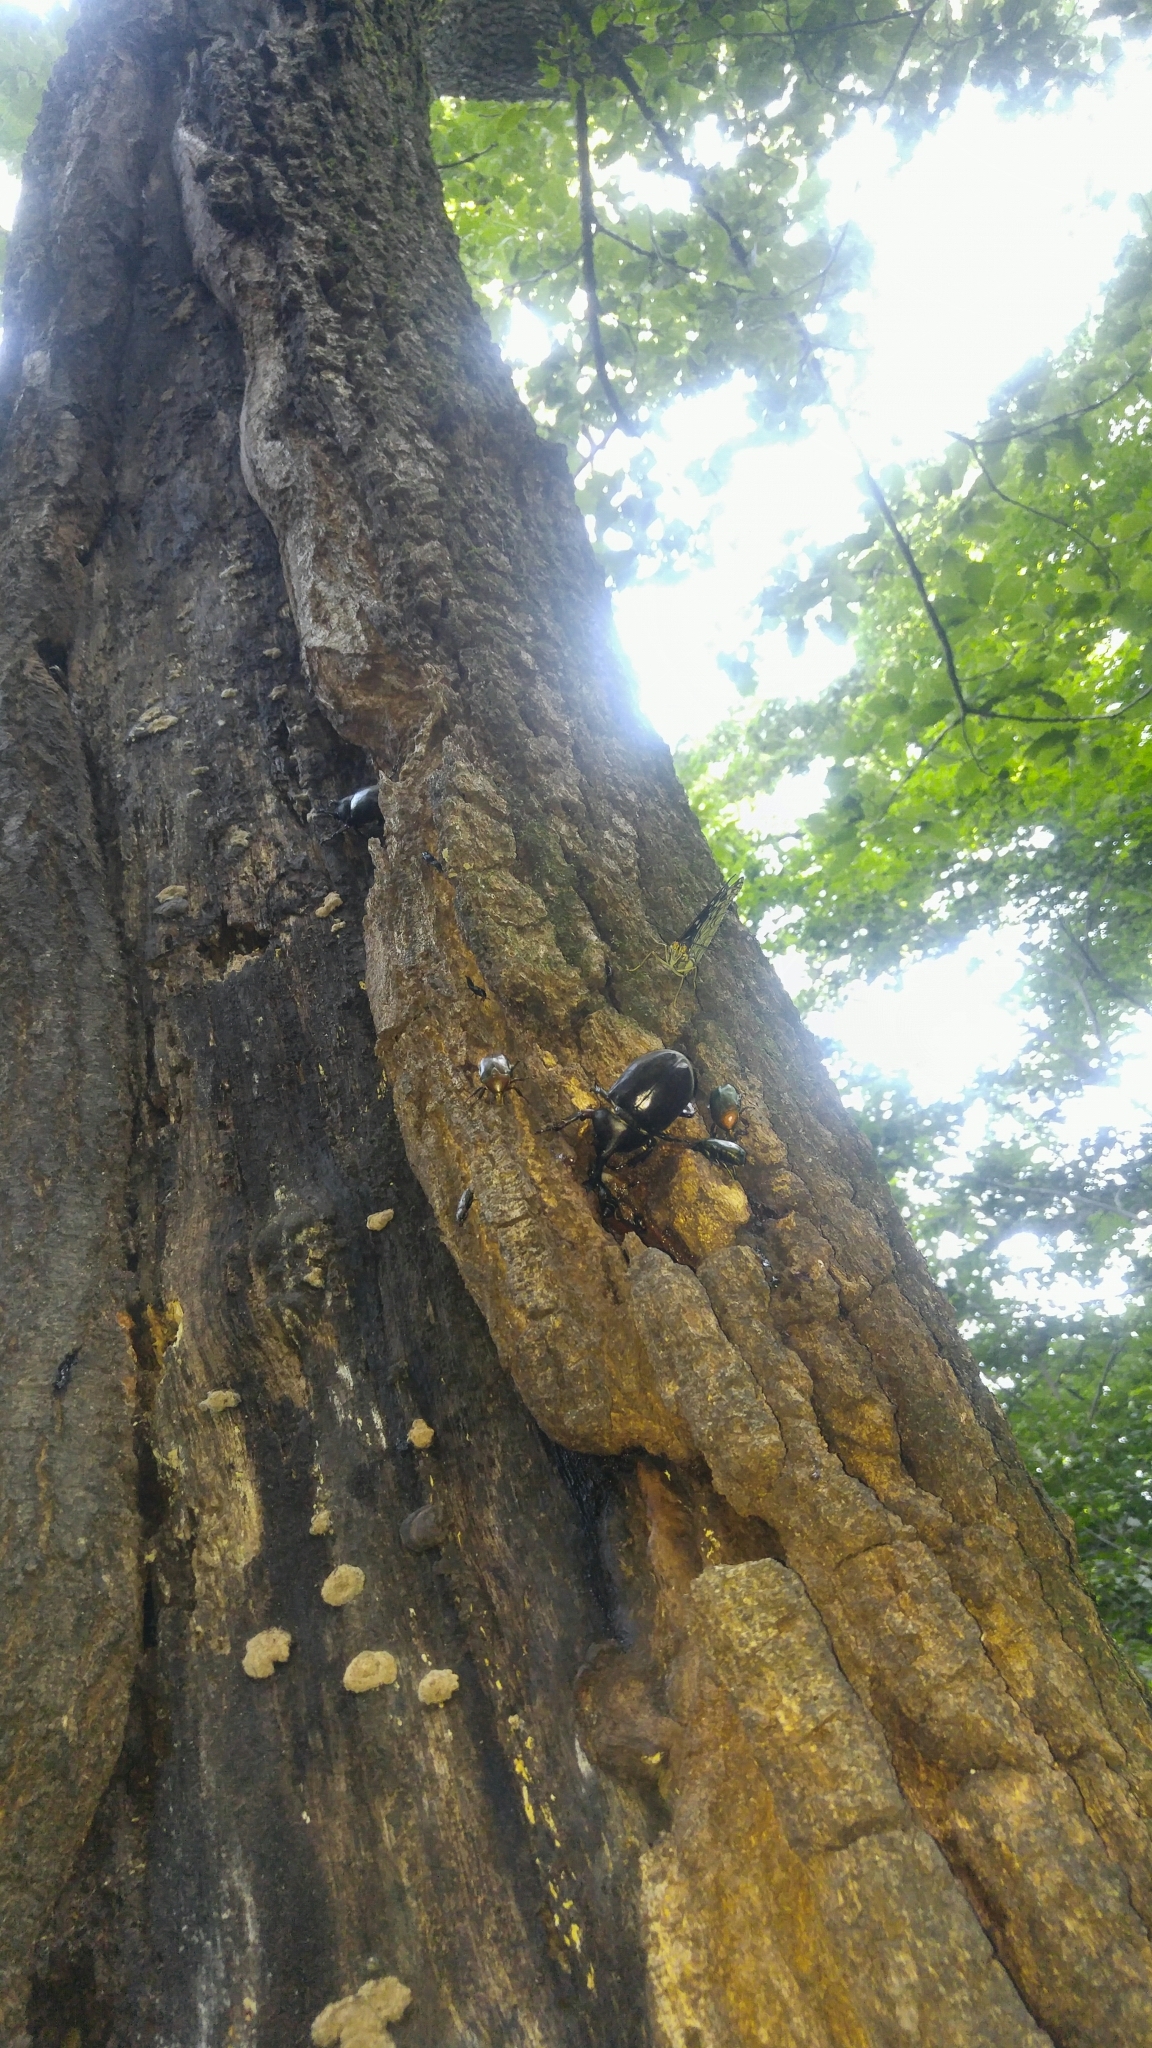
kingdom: Animalia
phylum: Arthropoda
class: Insecta
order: Coleoptera
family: Scarabaeidae
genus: Trypoxylus
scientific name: Trypoxylus dichotomus
